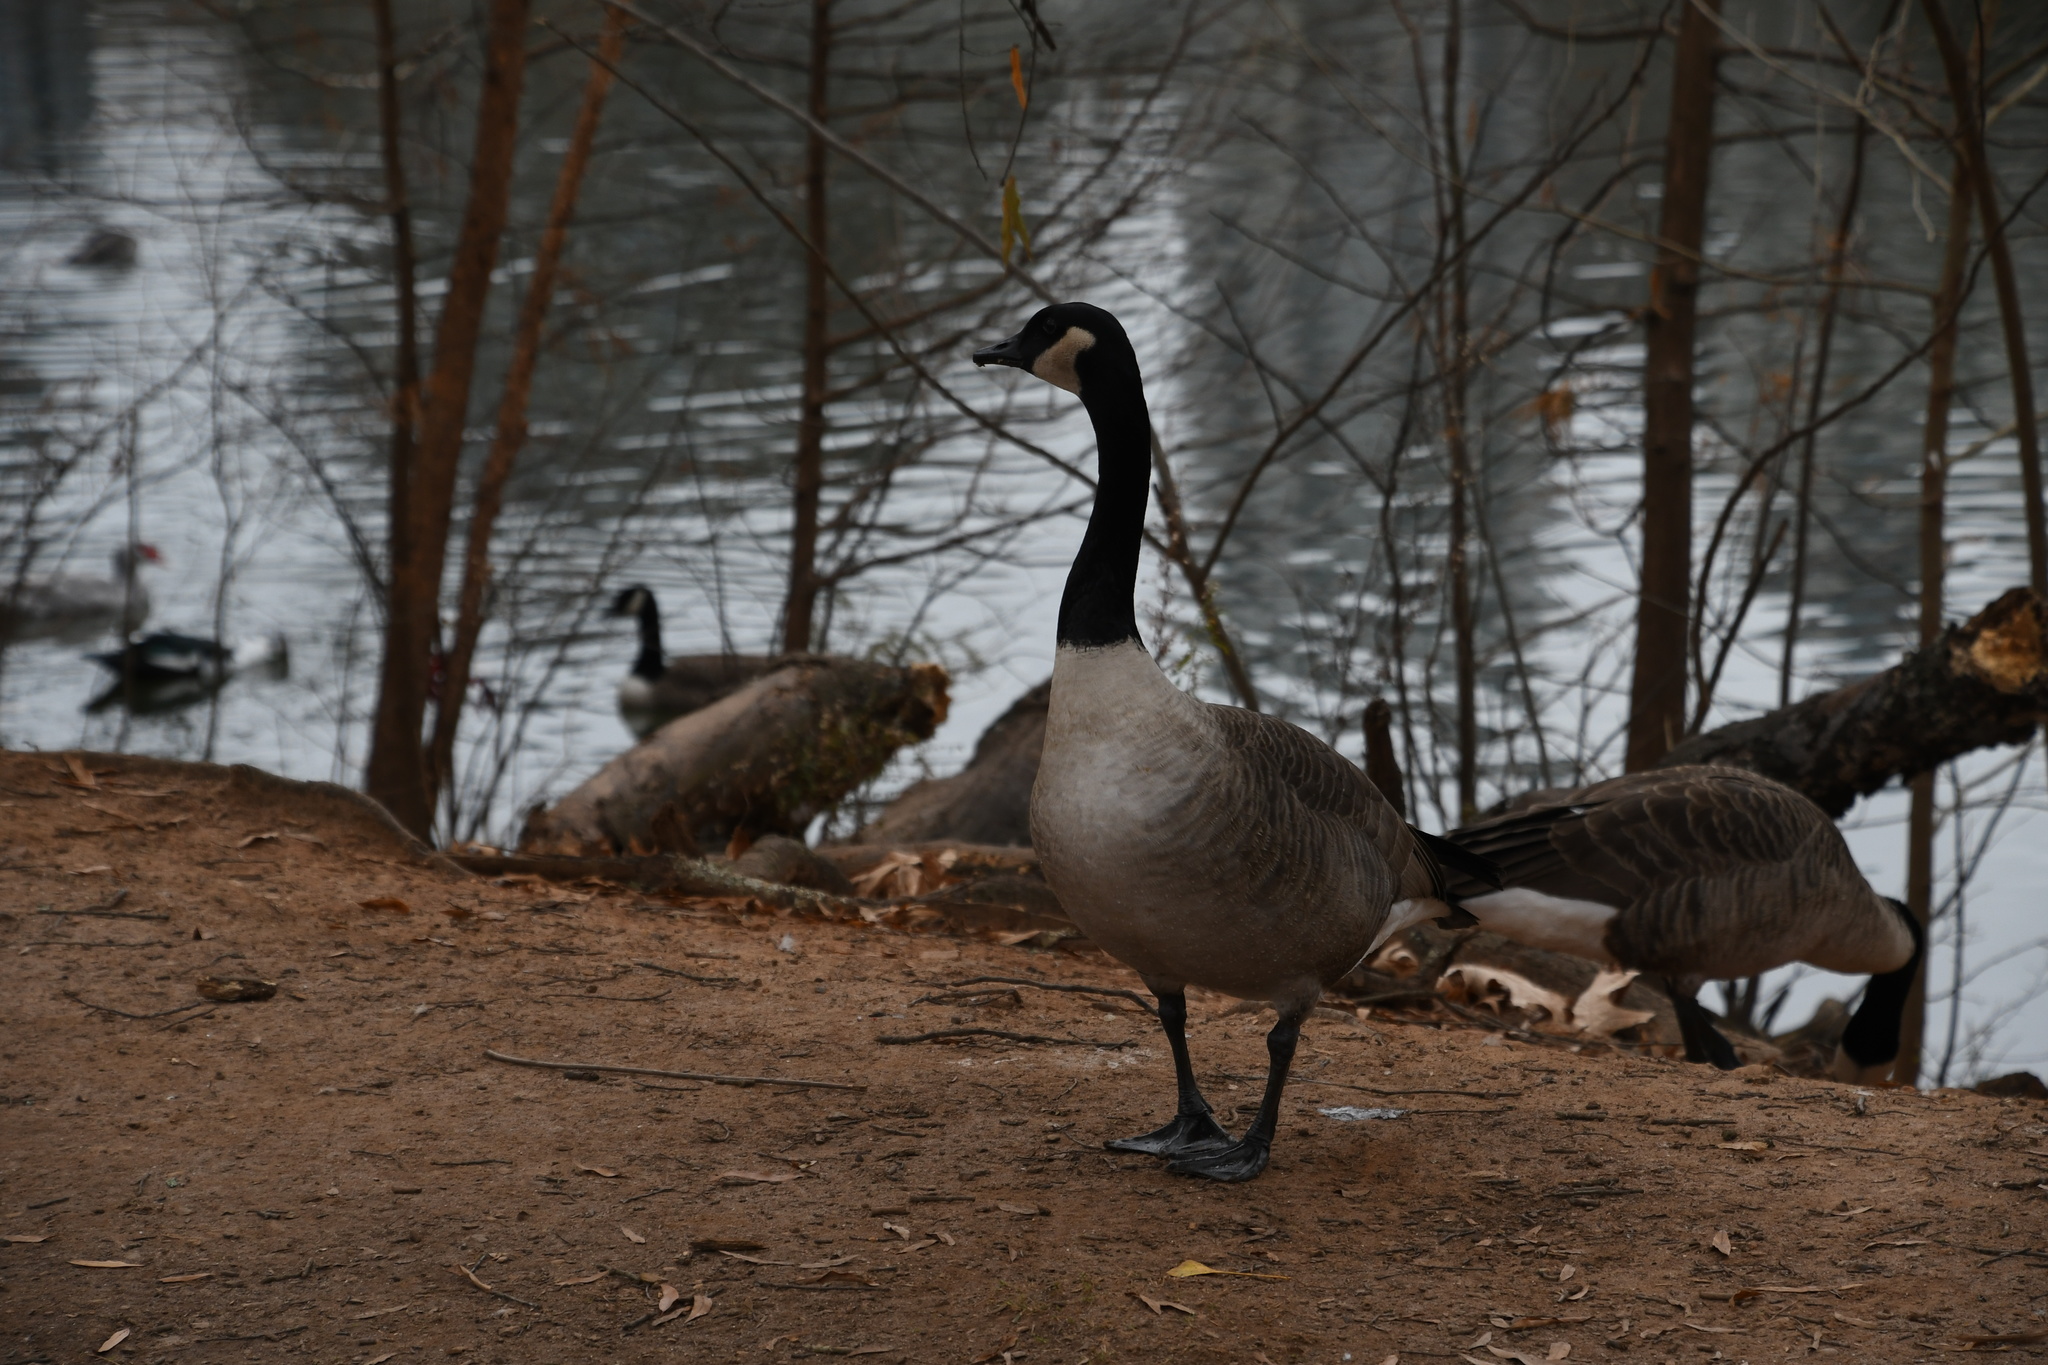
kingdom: Animalia
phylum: Chordata
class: Aves
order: Anseriformes
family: Anatidae
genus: Branta
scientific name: Branta canadensis
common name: Canada goose
